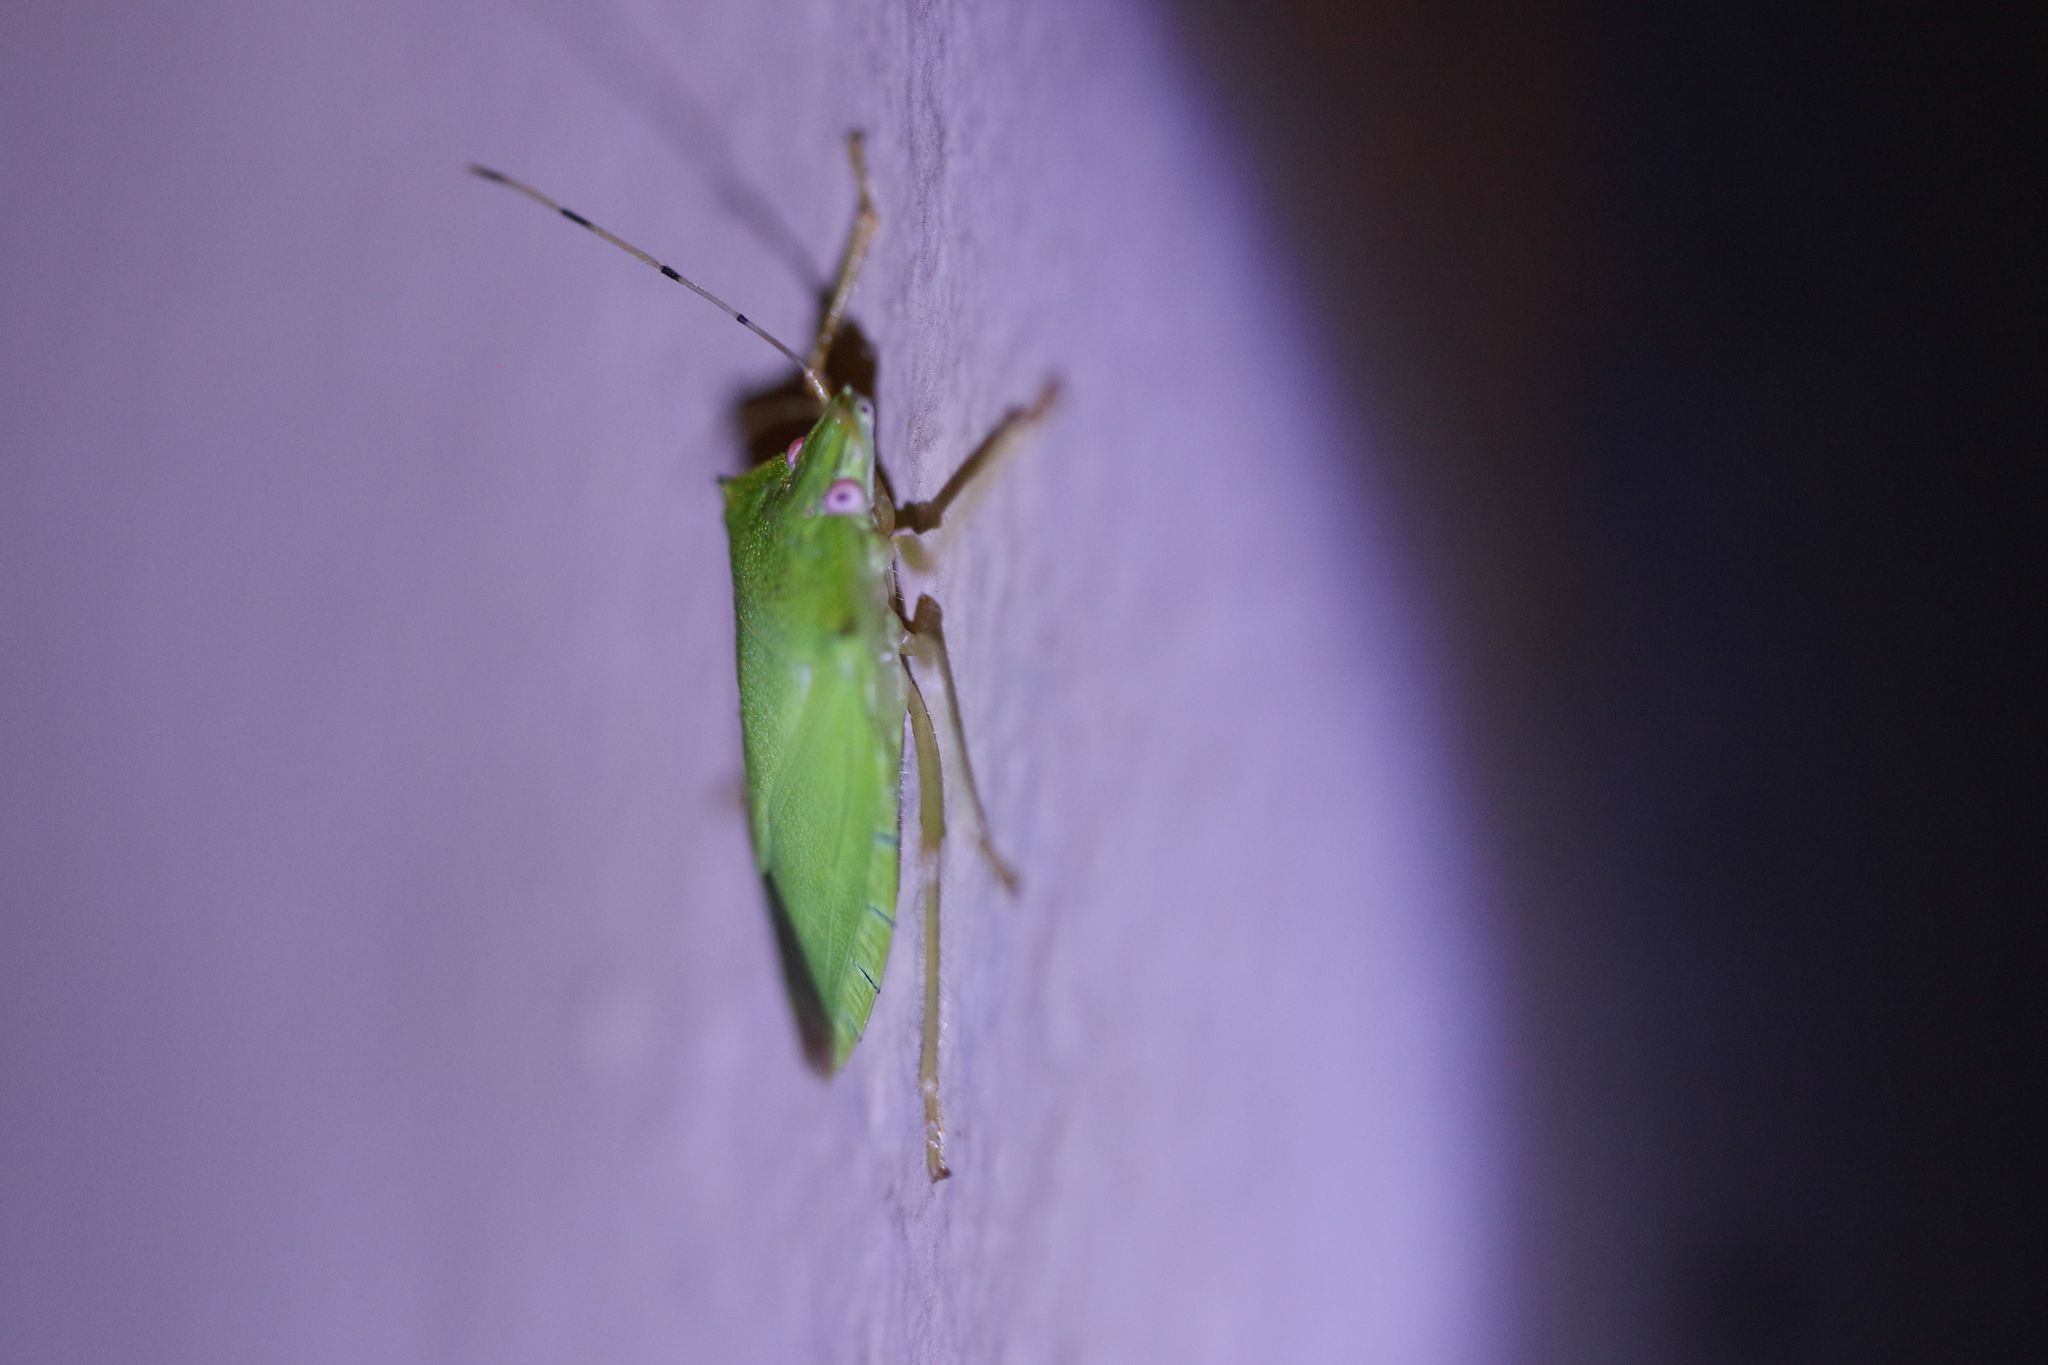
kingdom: Animalia
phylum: Arthropoda
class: Insecta
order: Hemiptera
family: Pentatomidae
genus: Chlorocoris
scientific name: Chlorocoris
